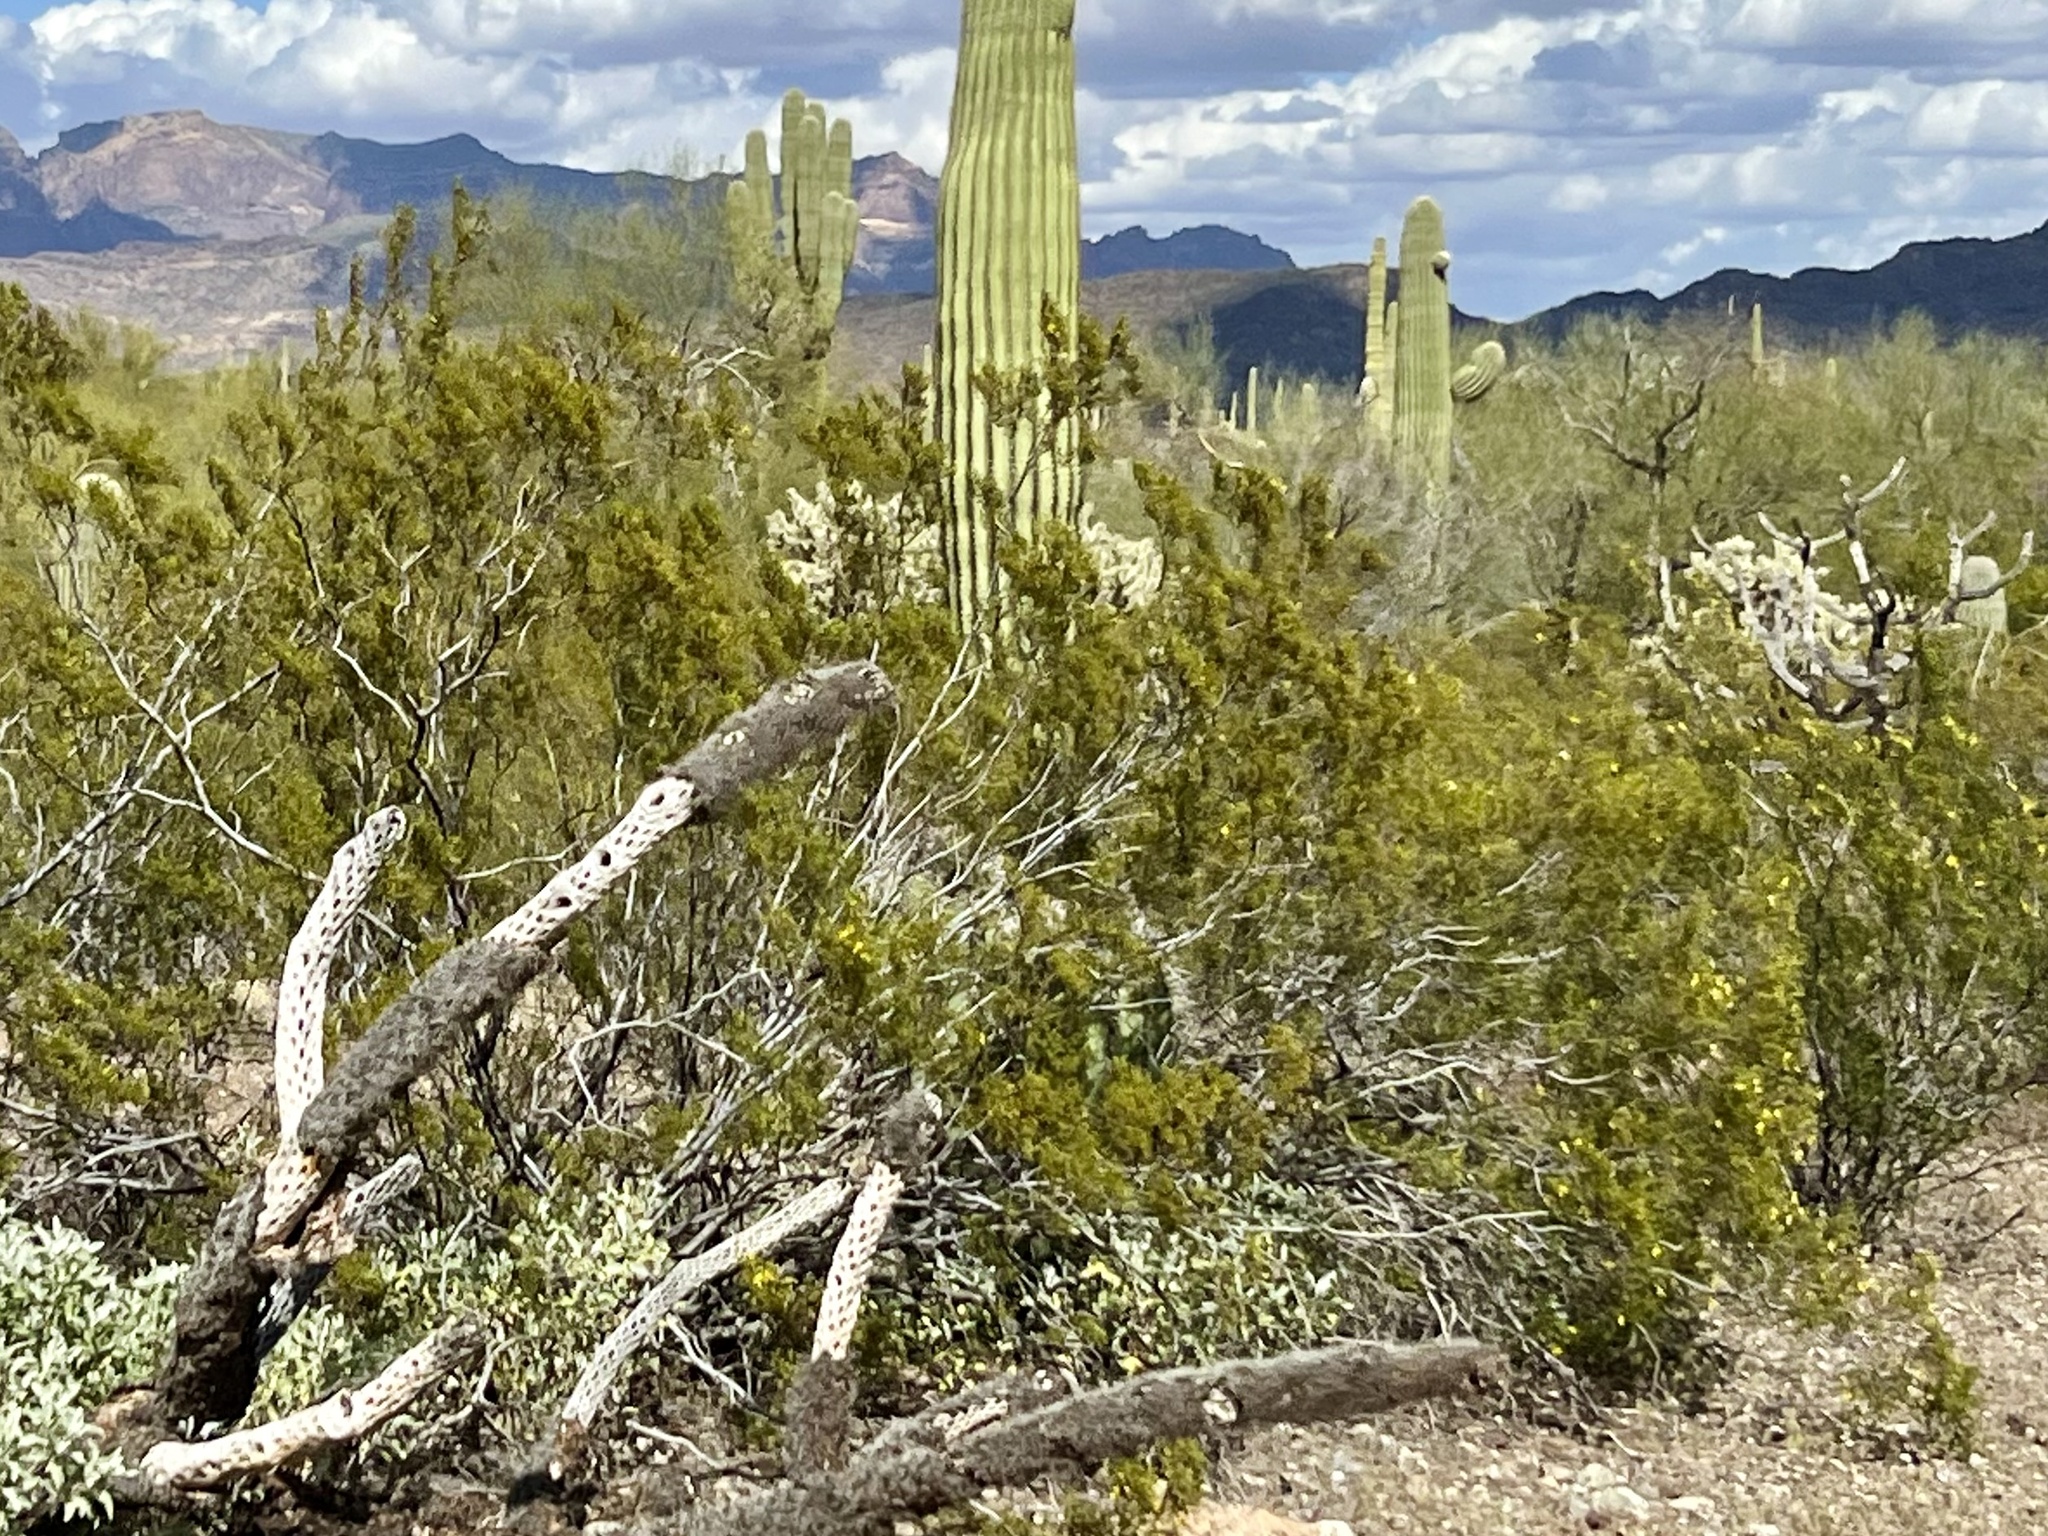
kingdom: Plantae
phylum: Tracheophyta
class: Magnoliopsida
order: Zygophyllales
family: Zygophyllaceae
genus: Larrea
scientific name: Larrea tridentata
